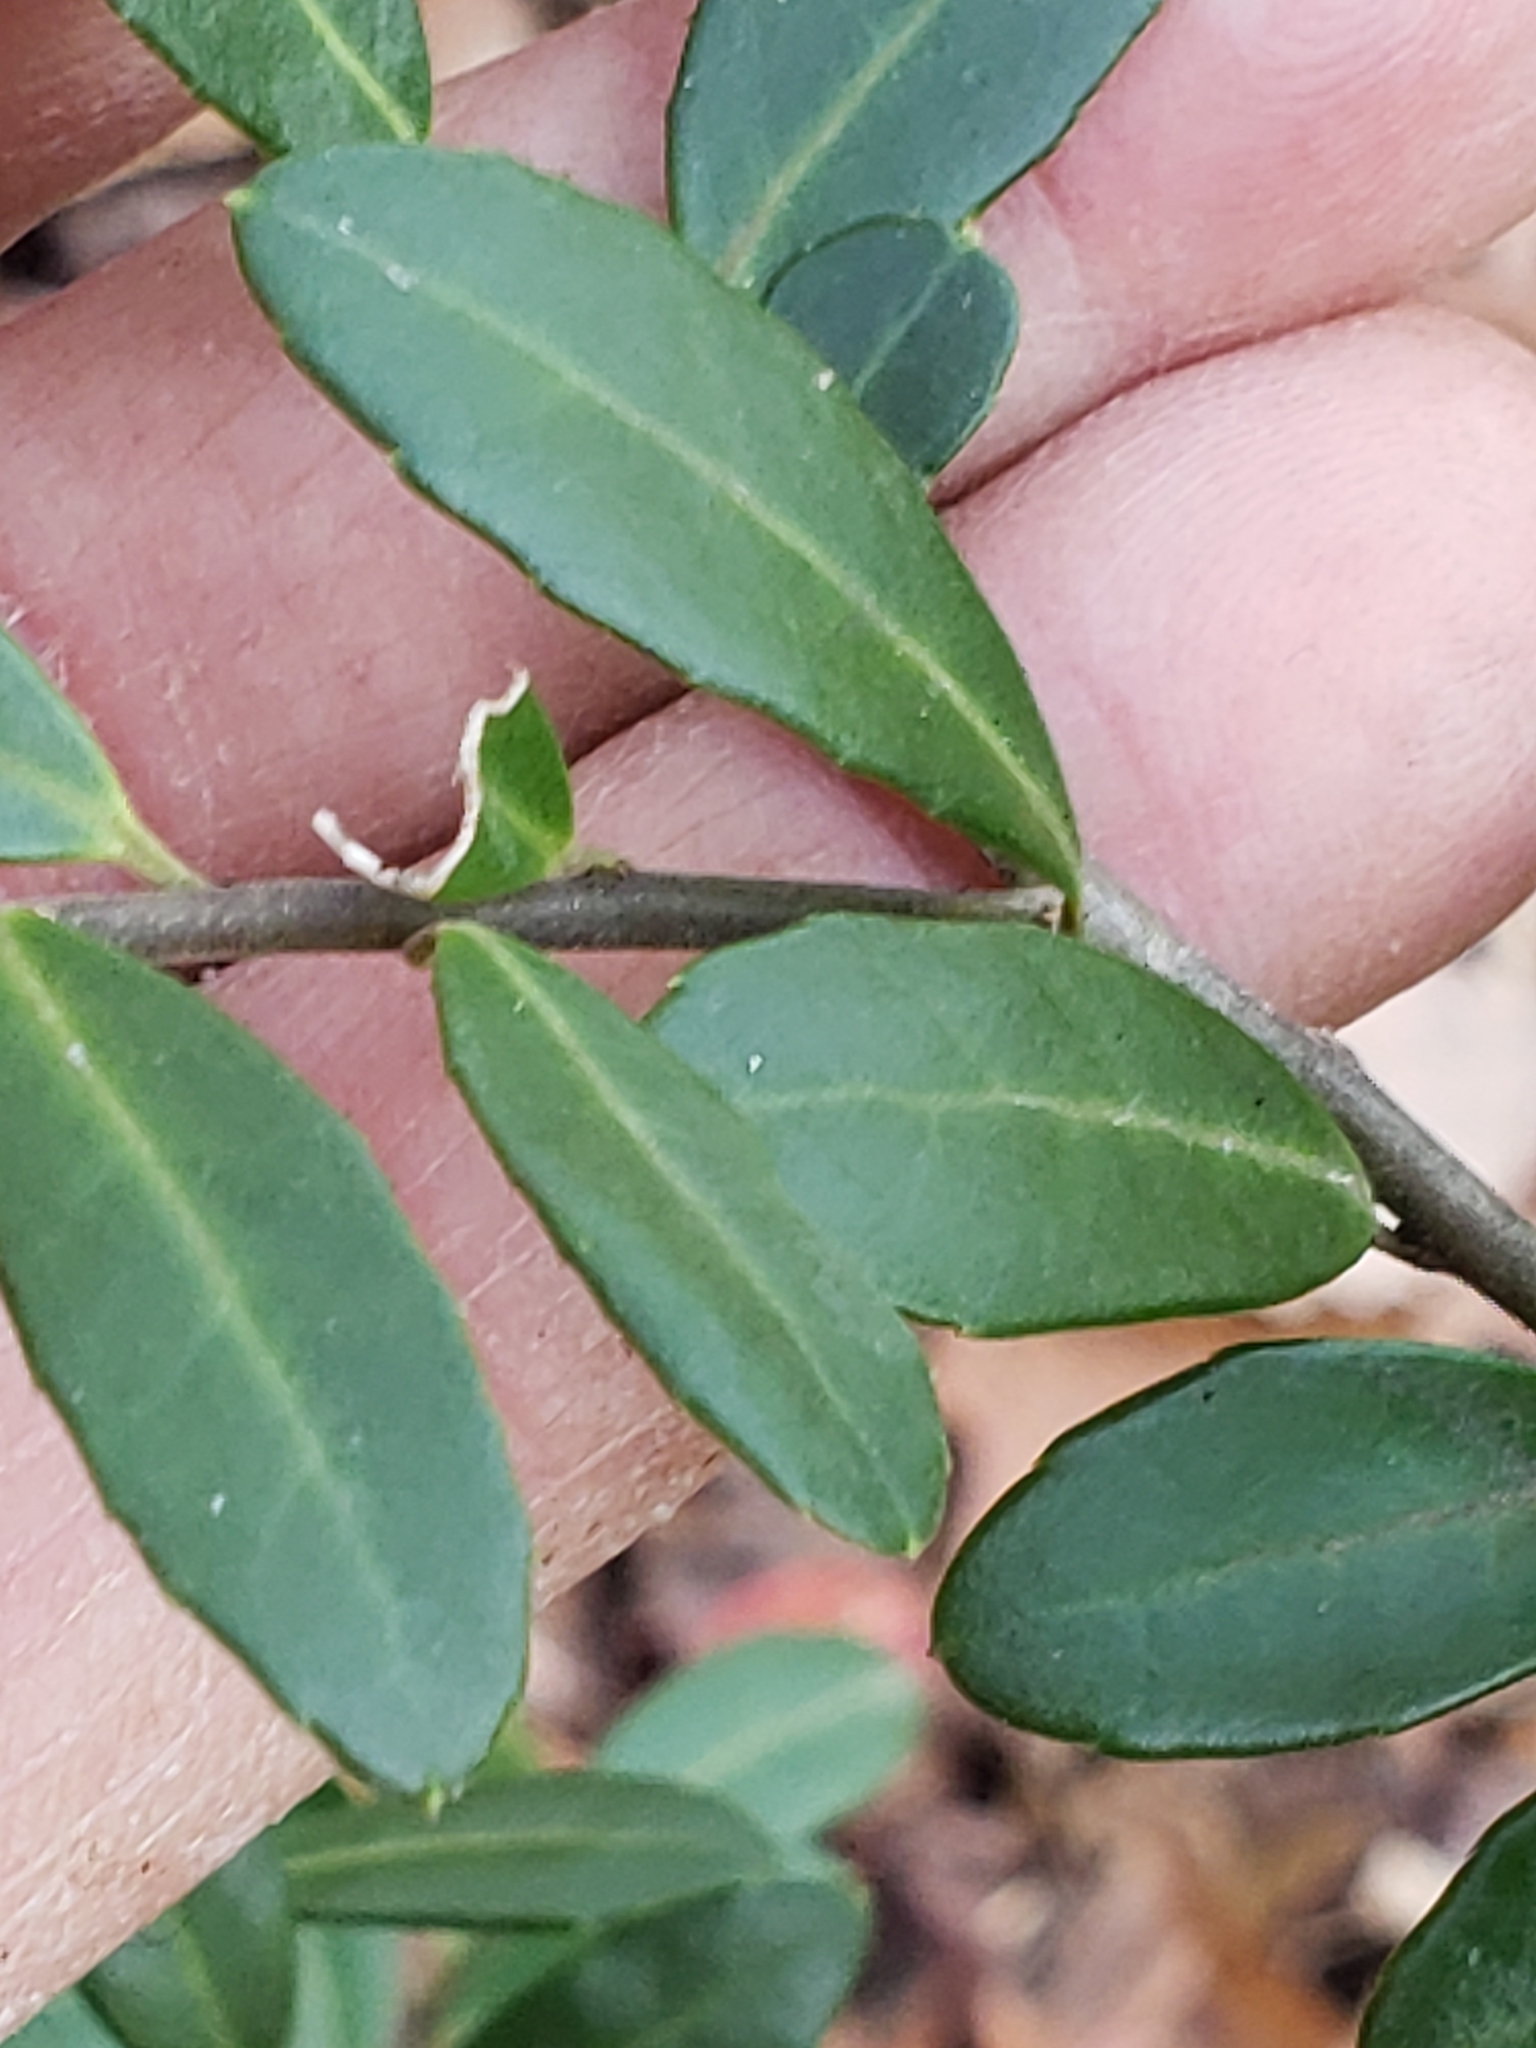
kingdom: Plantae
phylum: Tracheophyta
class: Magnoliopsida
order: Aquifoliales
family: Aquifoliaceae
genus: Ilex
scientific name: Ilex crenata
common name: Japanese holly
